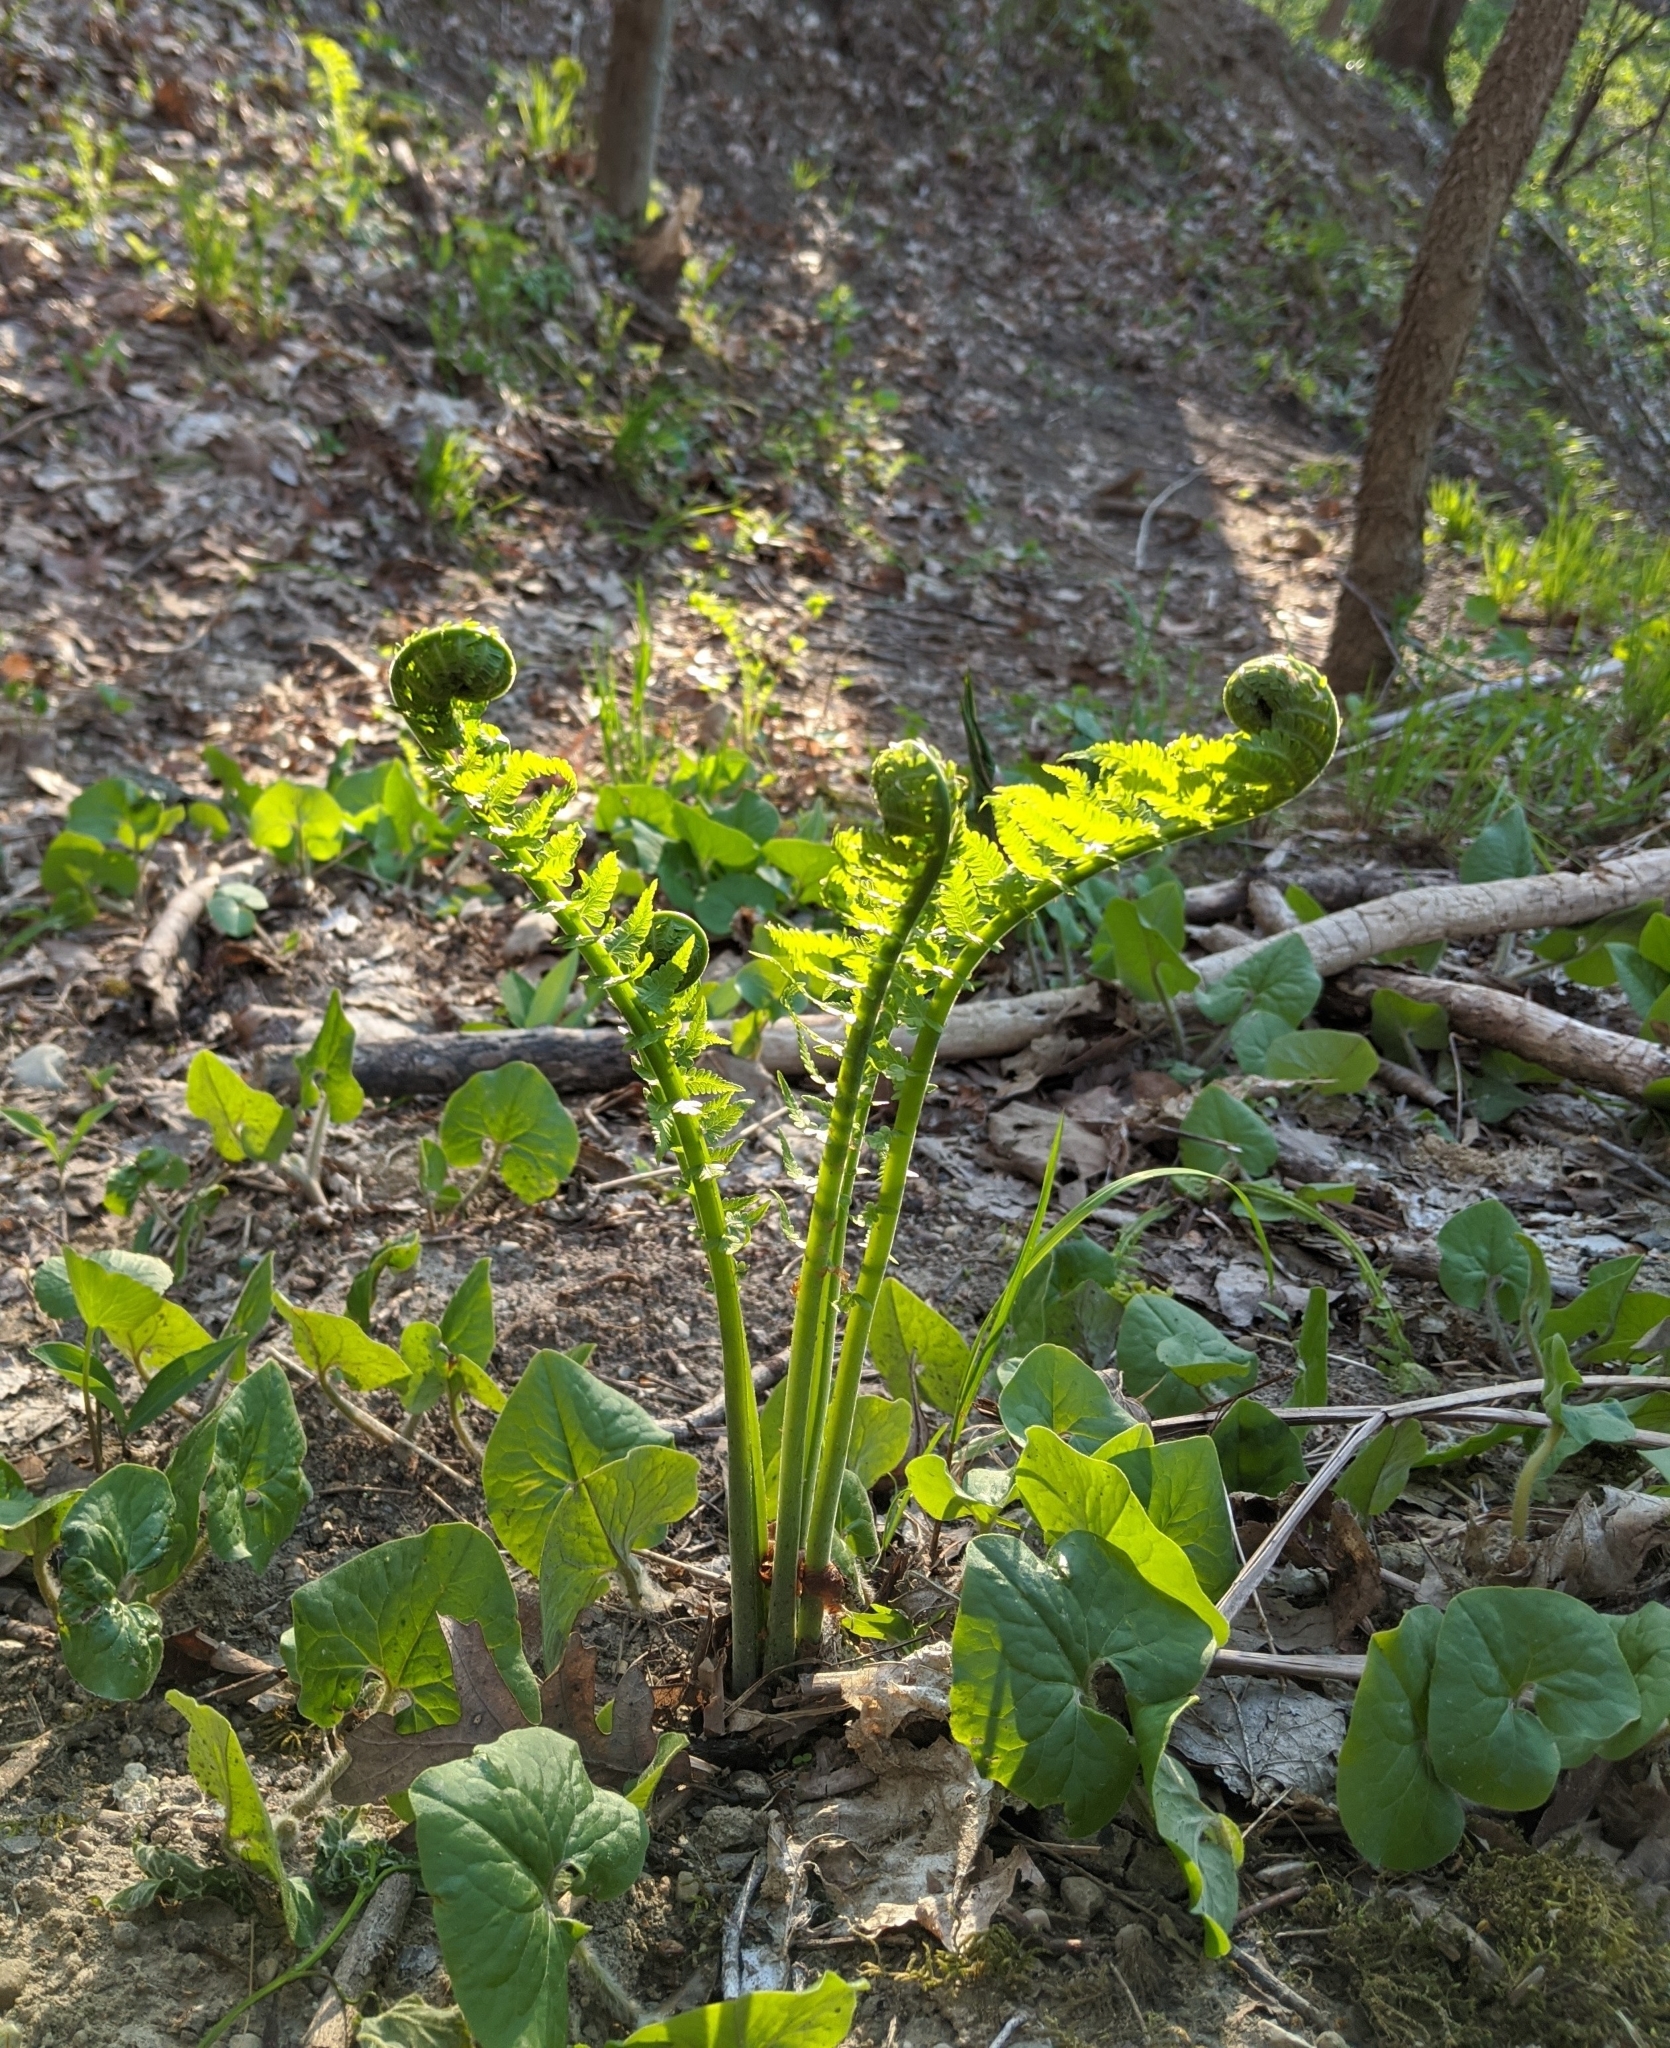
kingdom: Plantae
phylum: Tracheophyta
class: Polypodiopsida
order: Polypodiales
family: Onocleaceae
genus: Matteuccia
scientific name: Matteuccia struthiopteris
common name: Ostrich fern
